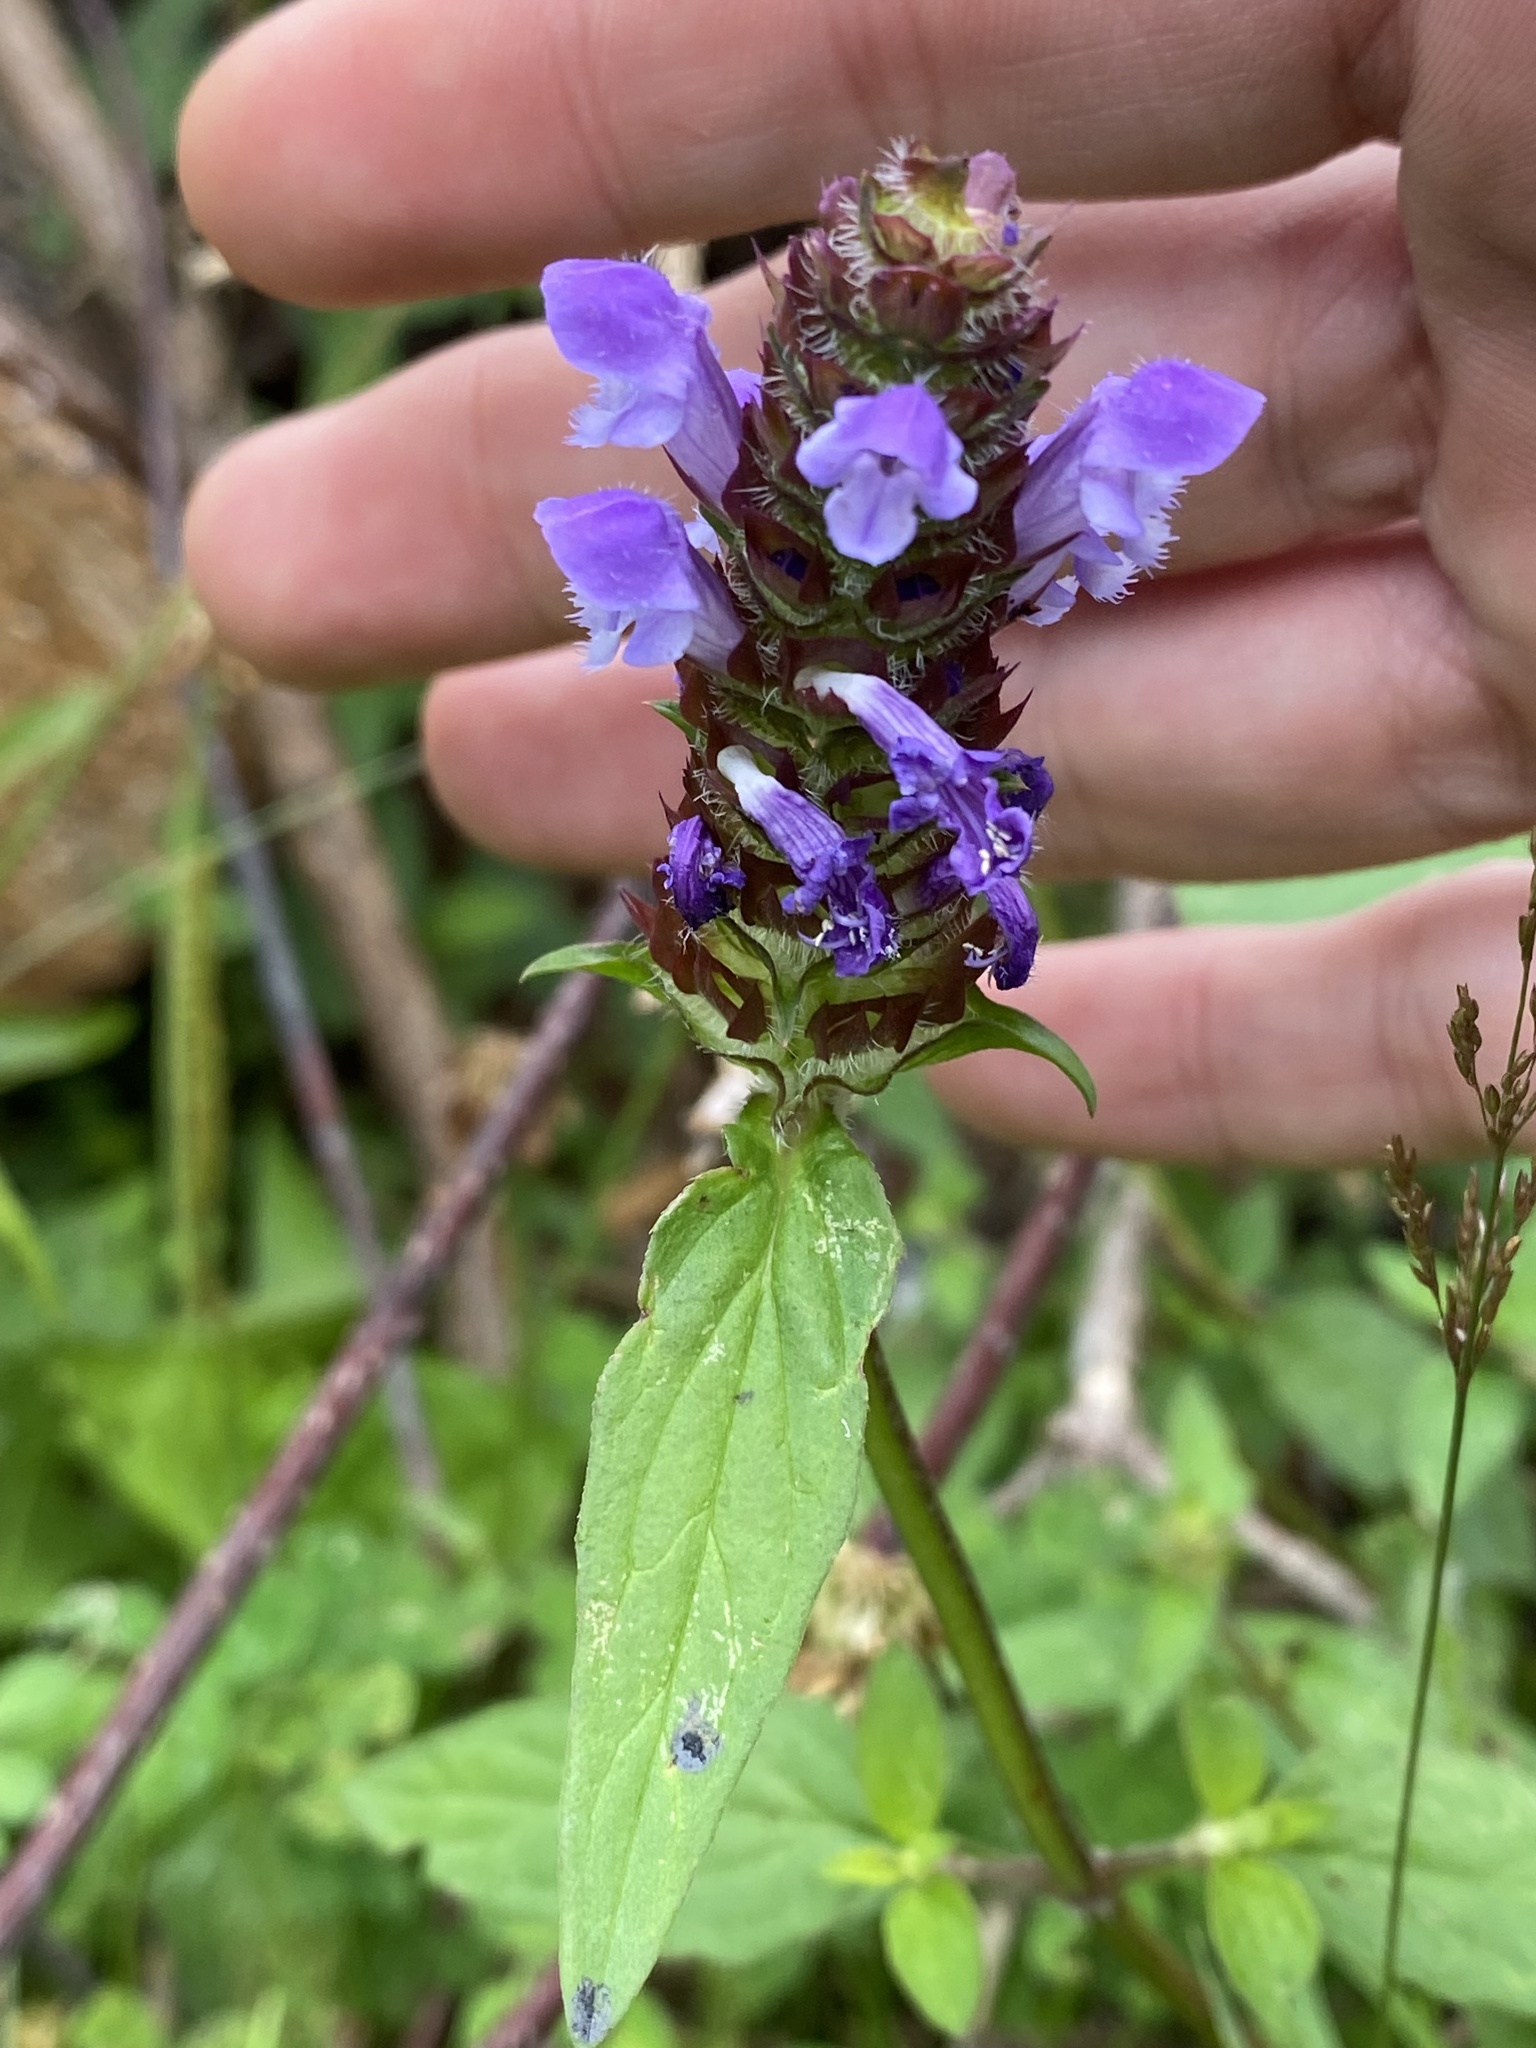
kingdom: Plantae
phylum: Tracheophyta
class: Magnoliopsida
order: Lamiales
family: Lamiaceae
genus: Prunella
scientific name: Prunella vulgaris
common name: Heal-all
